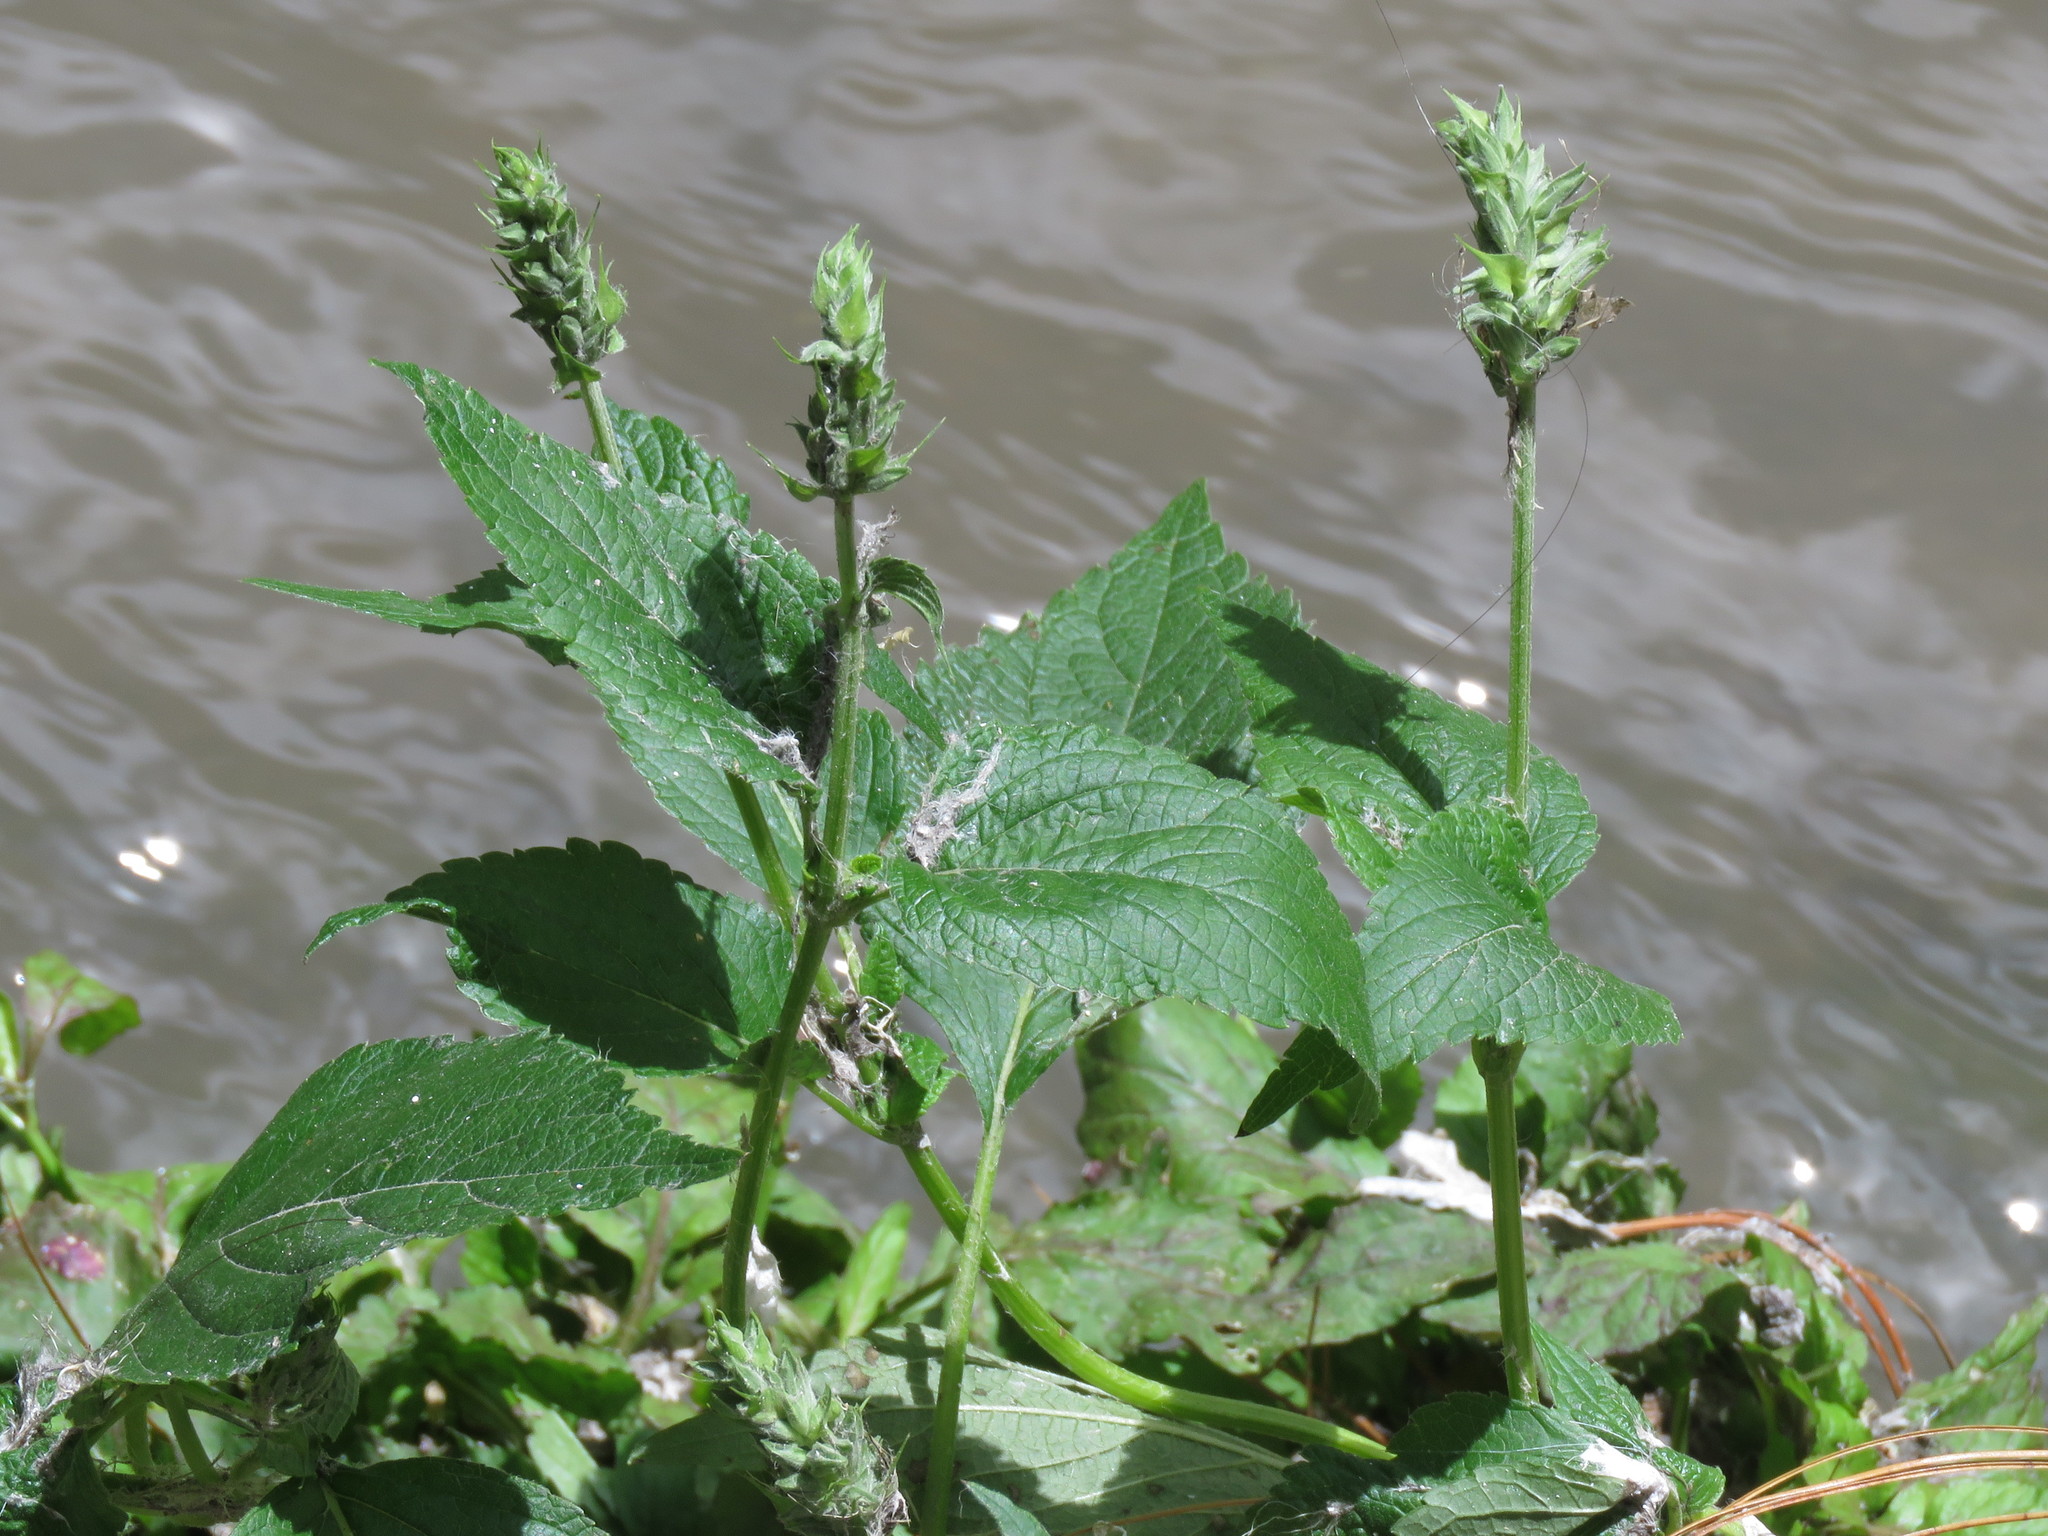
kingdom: Plantae
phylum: Tracheophyta
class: Magnoliopsida
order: Lamiales
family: Lamiaceae
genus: Salvia
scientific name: Salvia hispanica
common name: Chia
